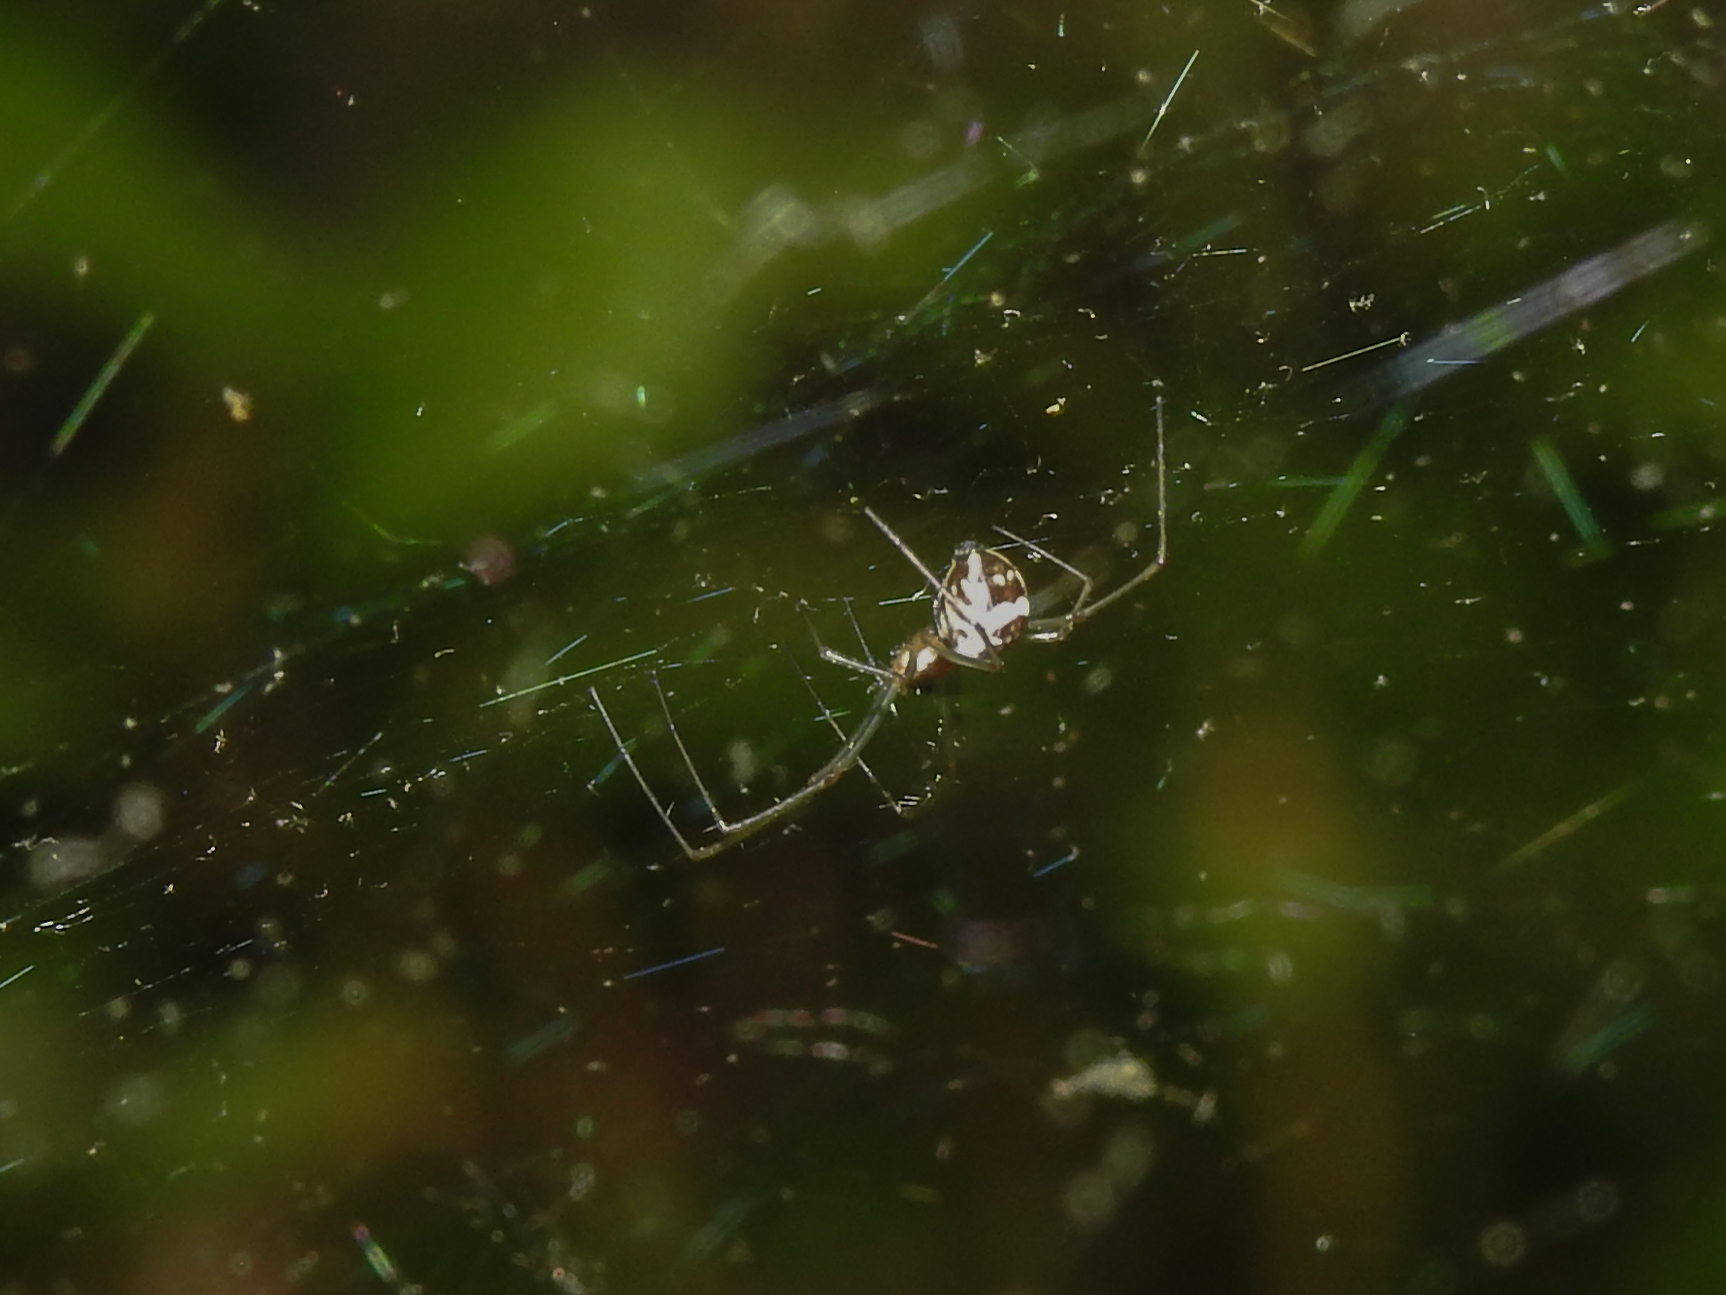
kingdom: Animalia
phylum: Arthropoda
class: Arachnida
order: Araneae
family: Linyphiidae
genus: Neriene
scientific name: Neriene radiata
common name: Filmy dome spider
